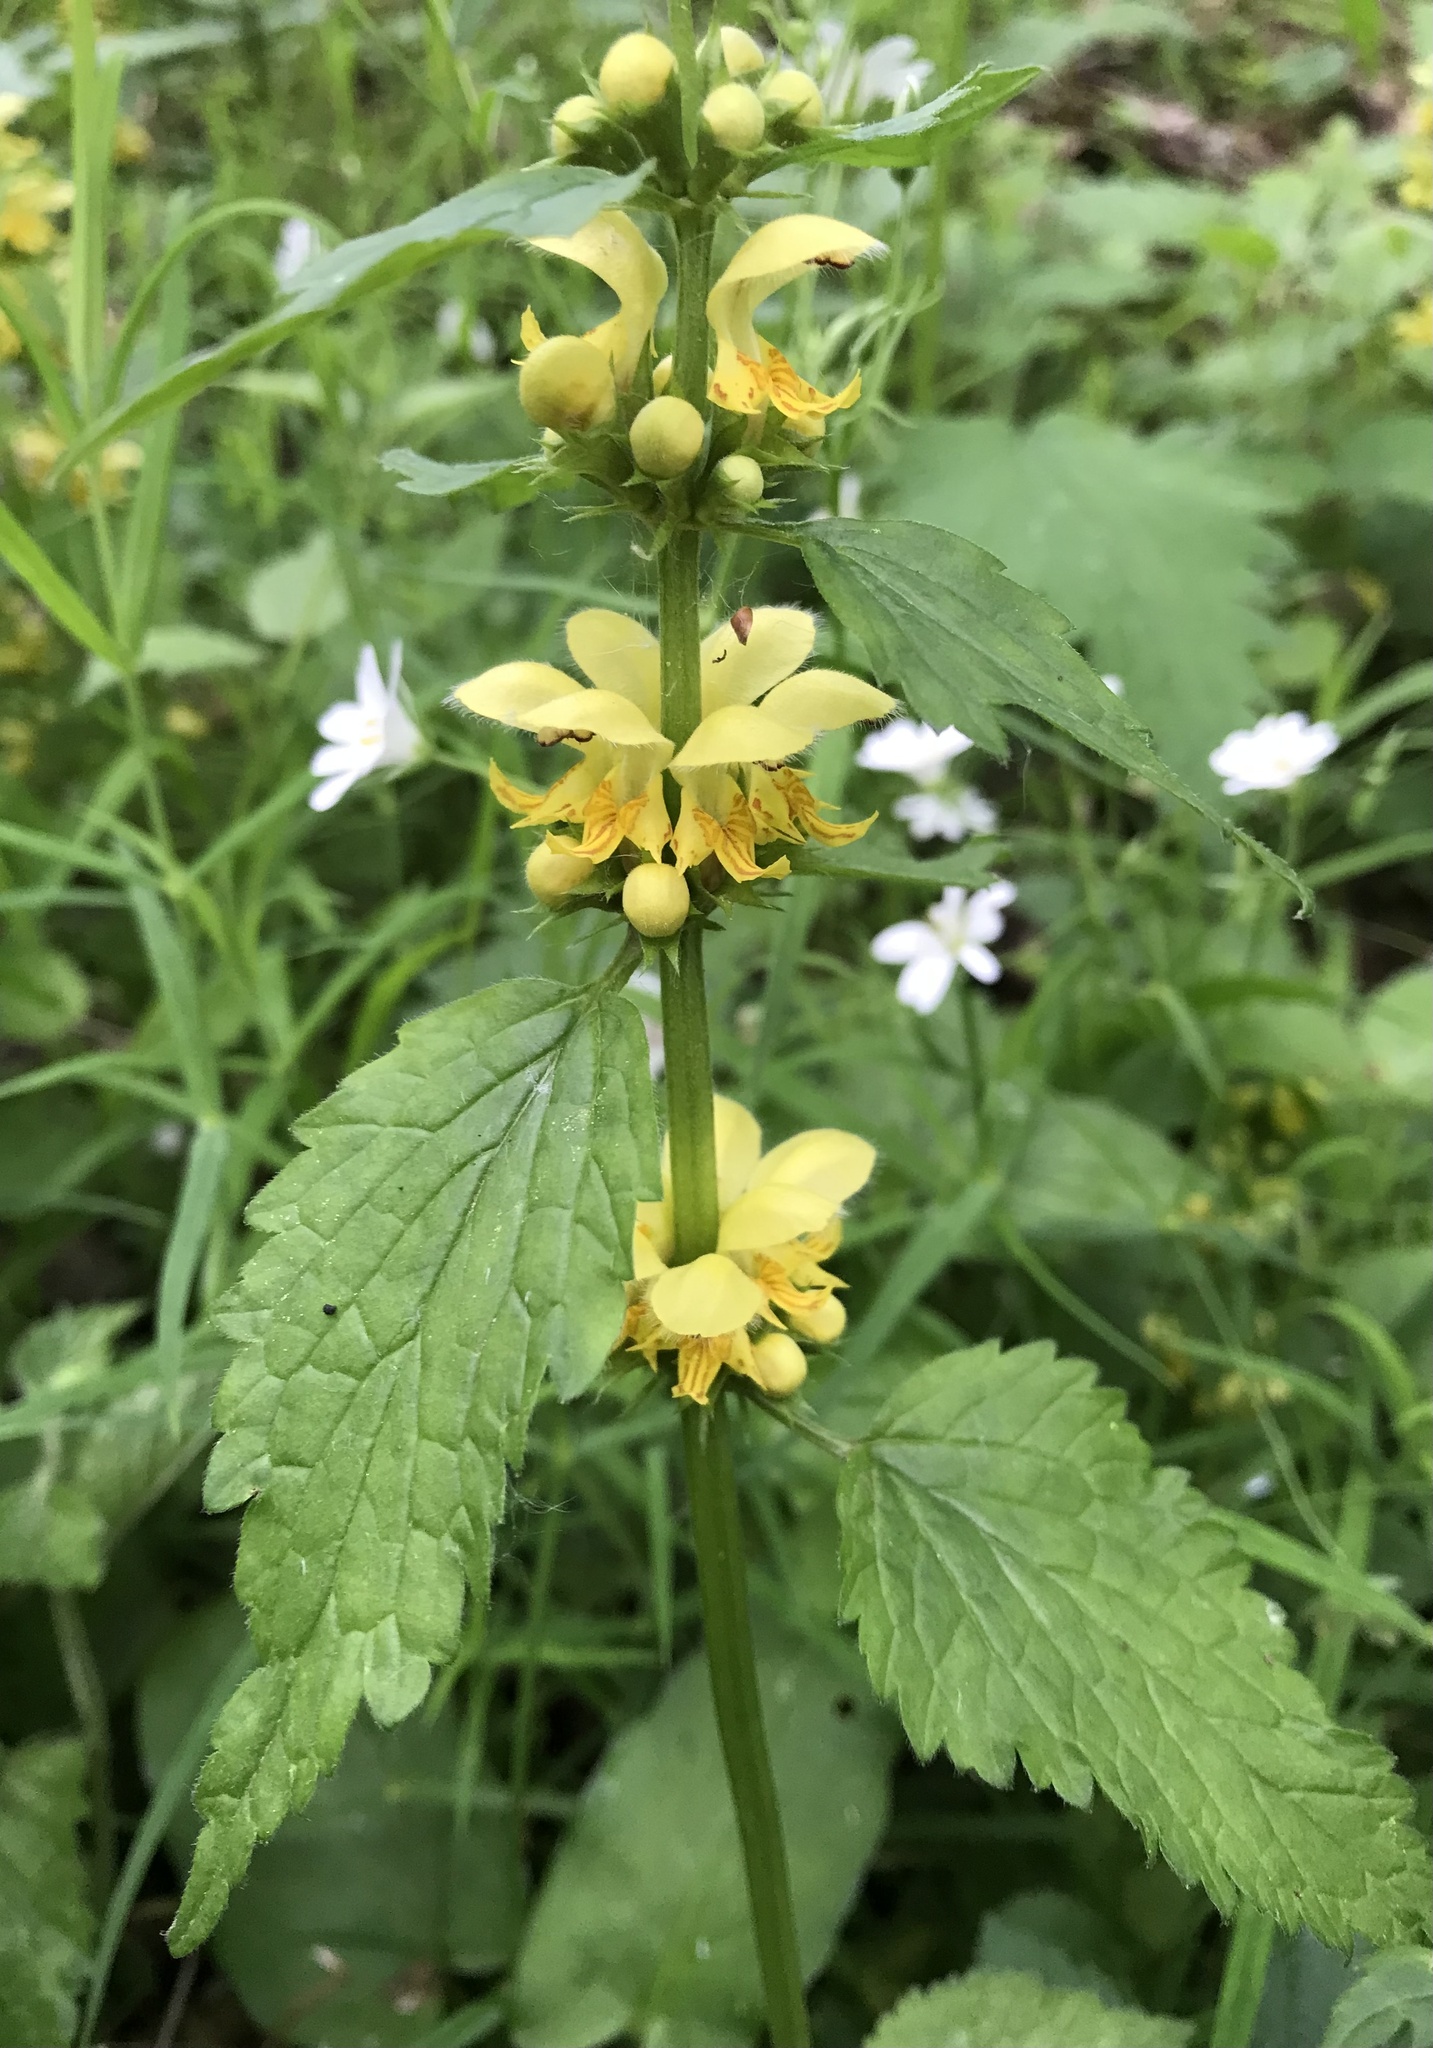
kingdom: Plantae
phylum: Tracheophyta
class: Magnoliopsida
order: Lamiales
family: Lamiaceae
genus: Lamium
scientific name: Lamium galeobdolon
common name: Yellow archangel
